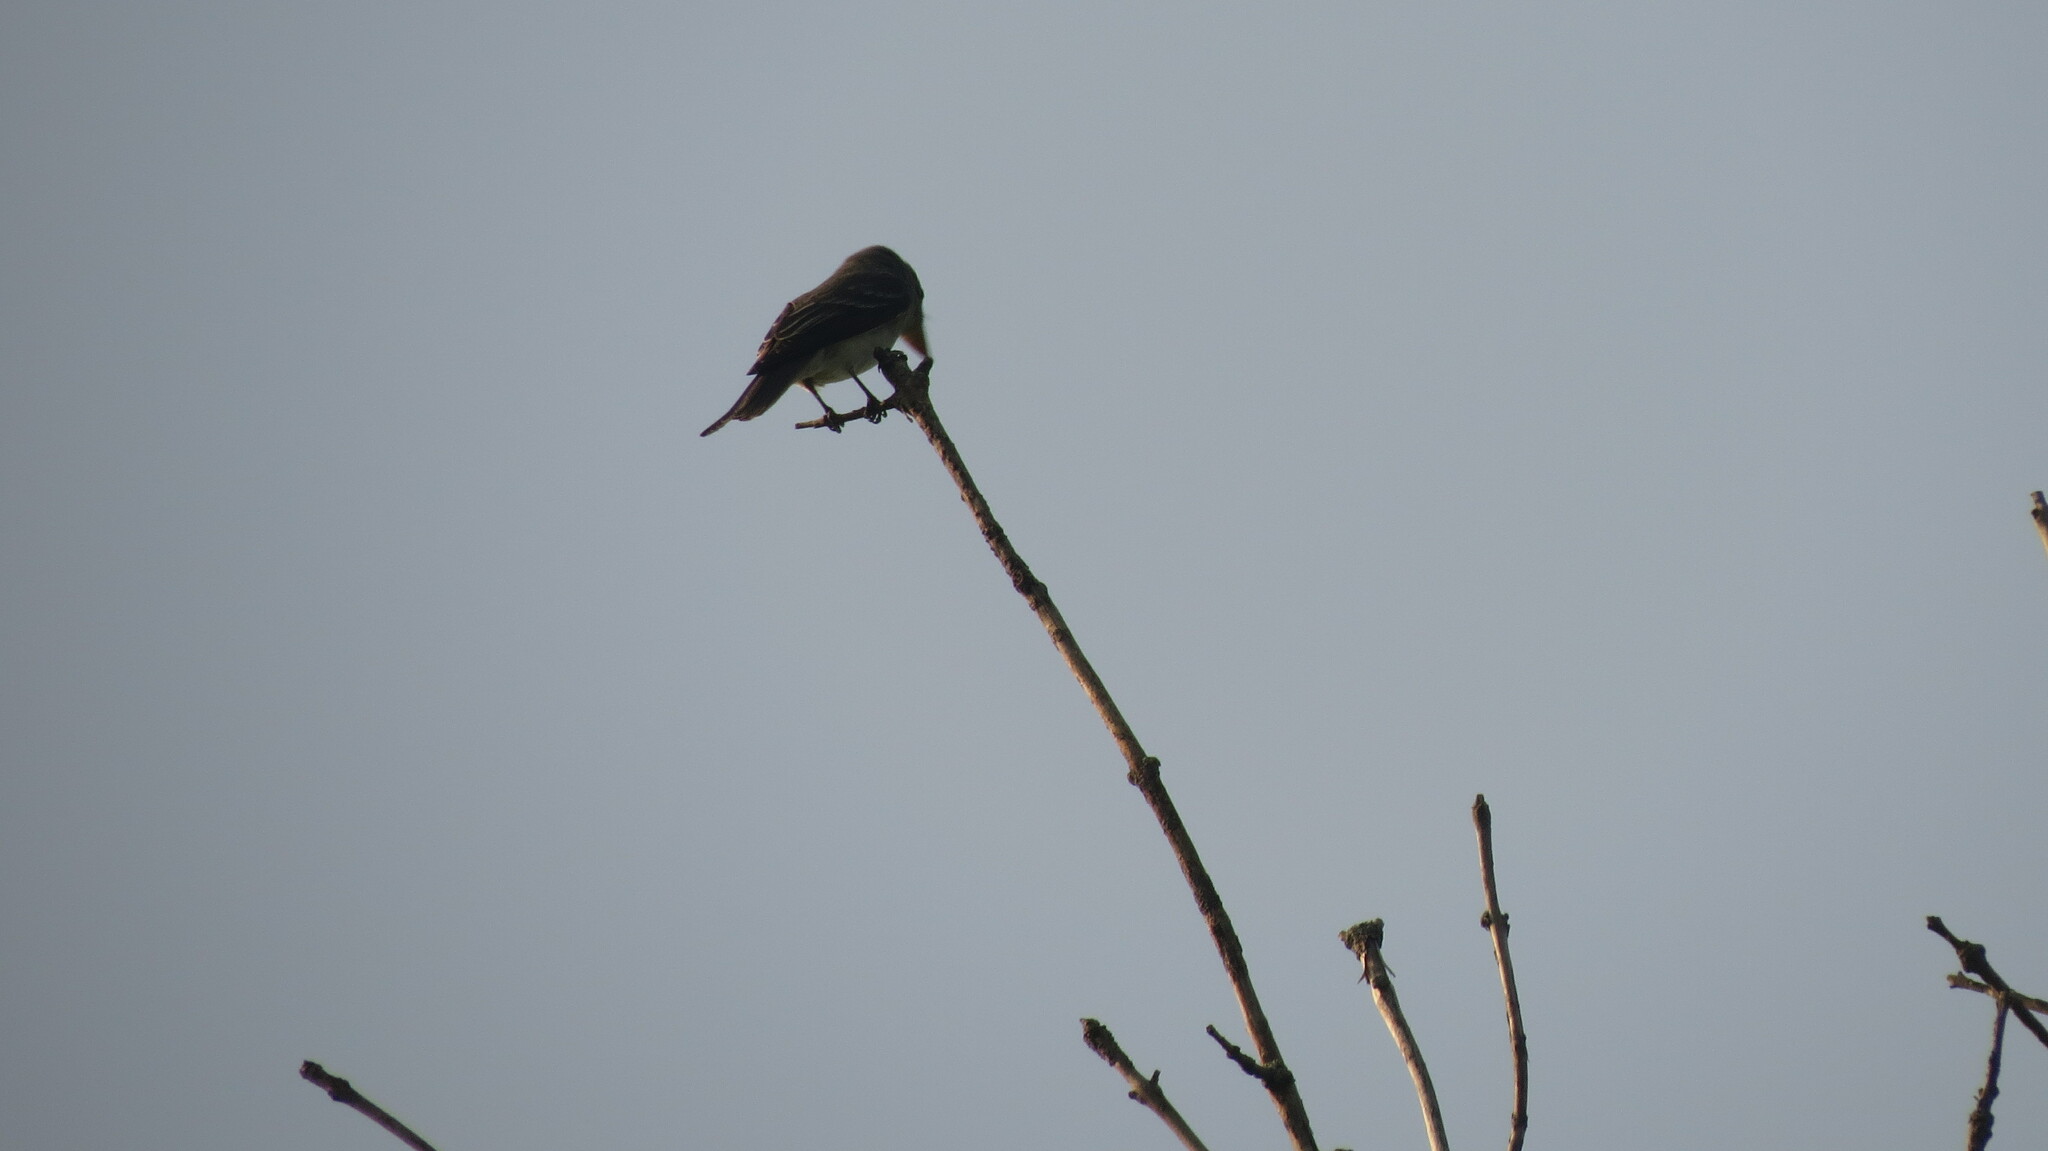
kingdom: Animalia
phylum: Chordata
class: Aves
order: Passeriformes
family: Tyrannidae
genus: Contopus
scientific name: Contopus virens
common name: Eastern wood-pewee
